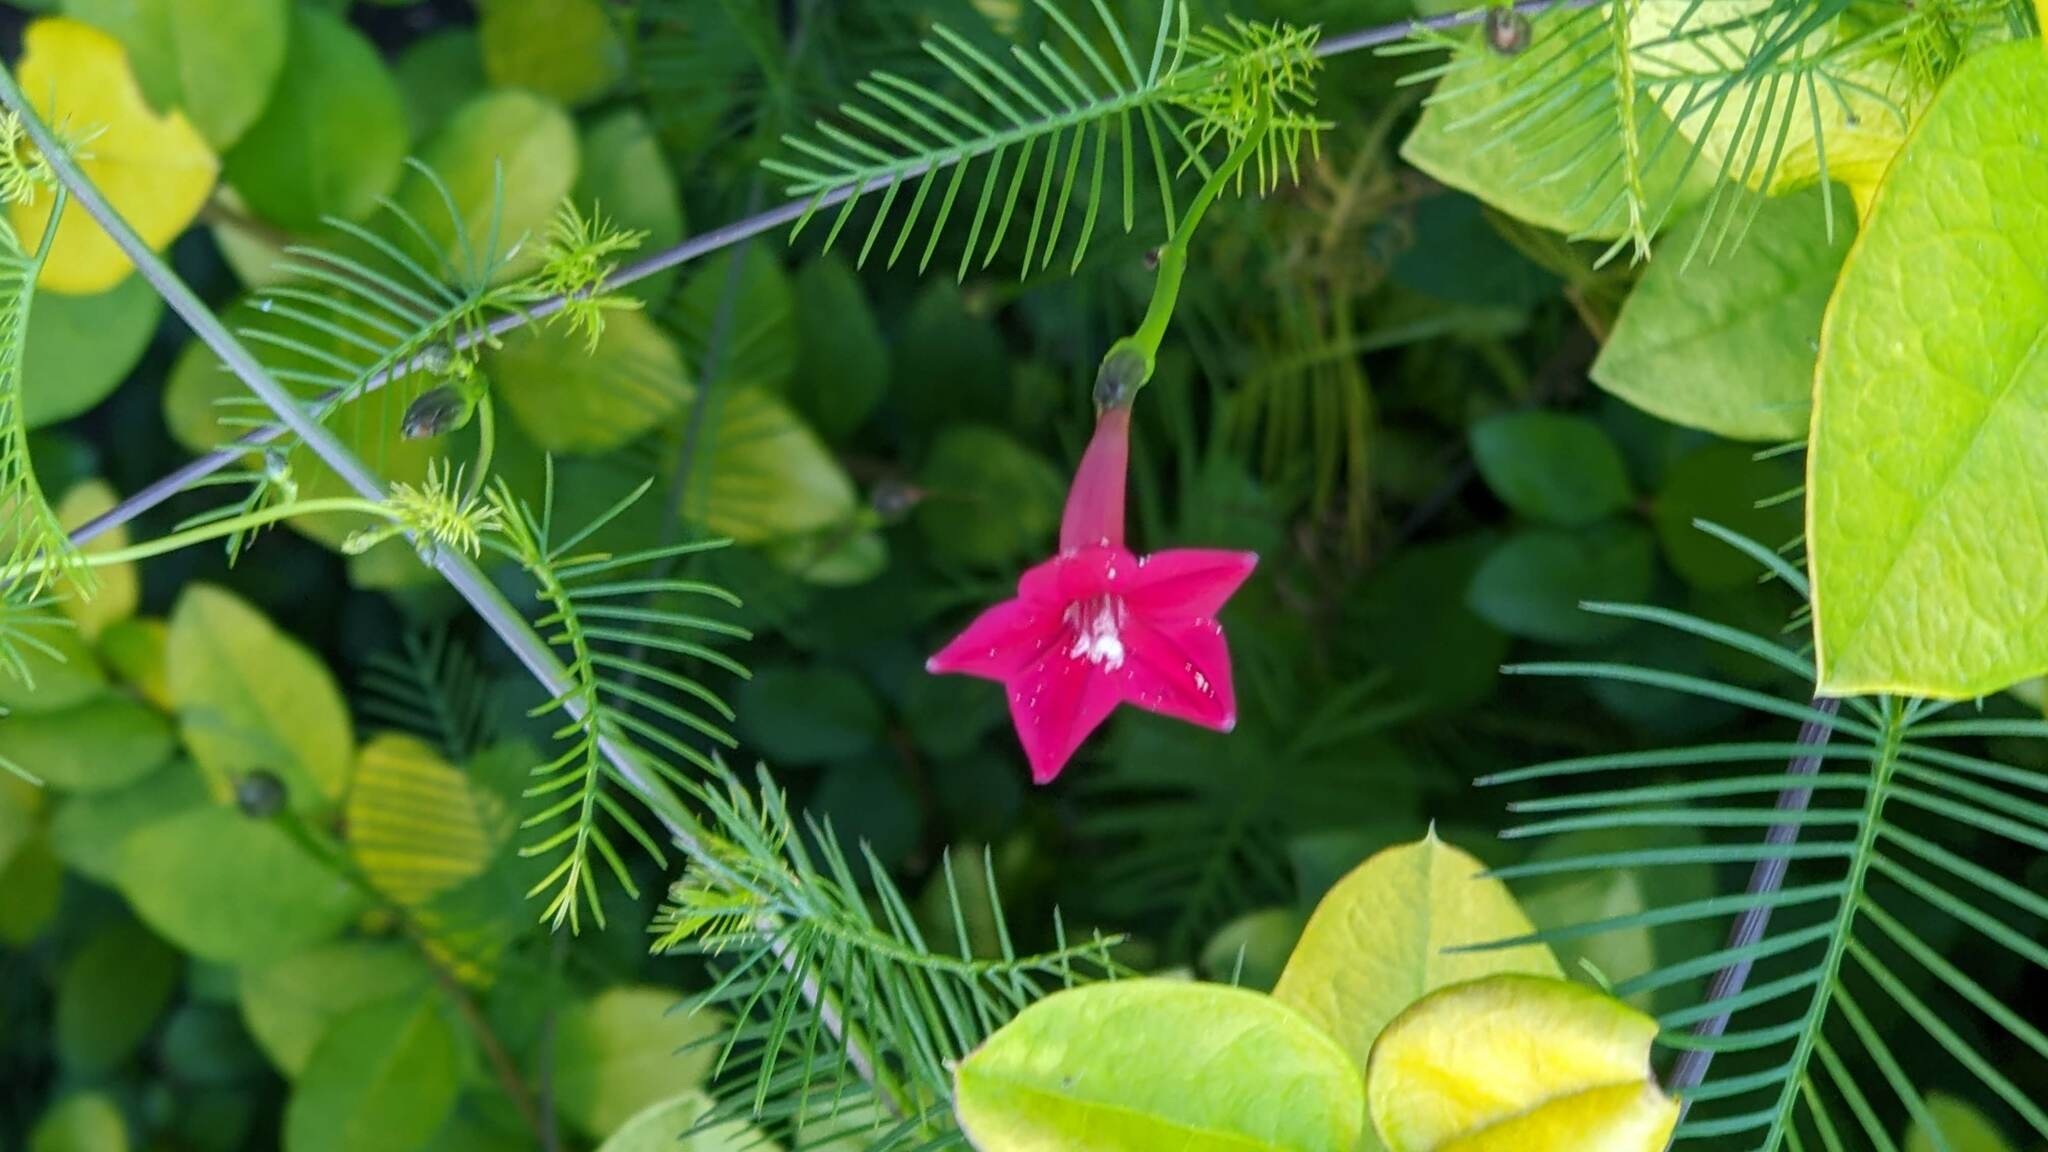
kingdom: Plantae
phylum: Tracheophyta
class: Magnoliopsida
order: Solanales
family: Convolvulaceae
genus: Ipomoea
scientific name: Ipomoea quamoclit
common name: Cypress vine
